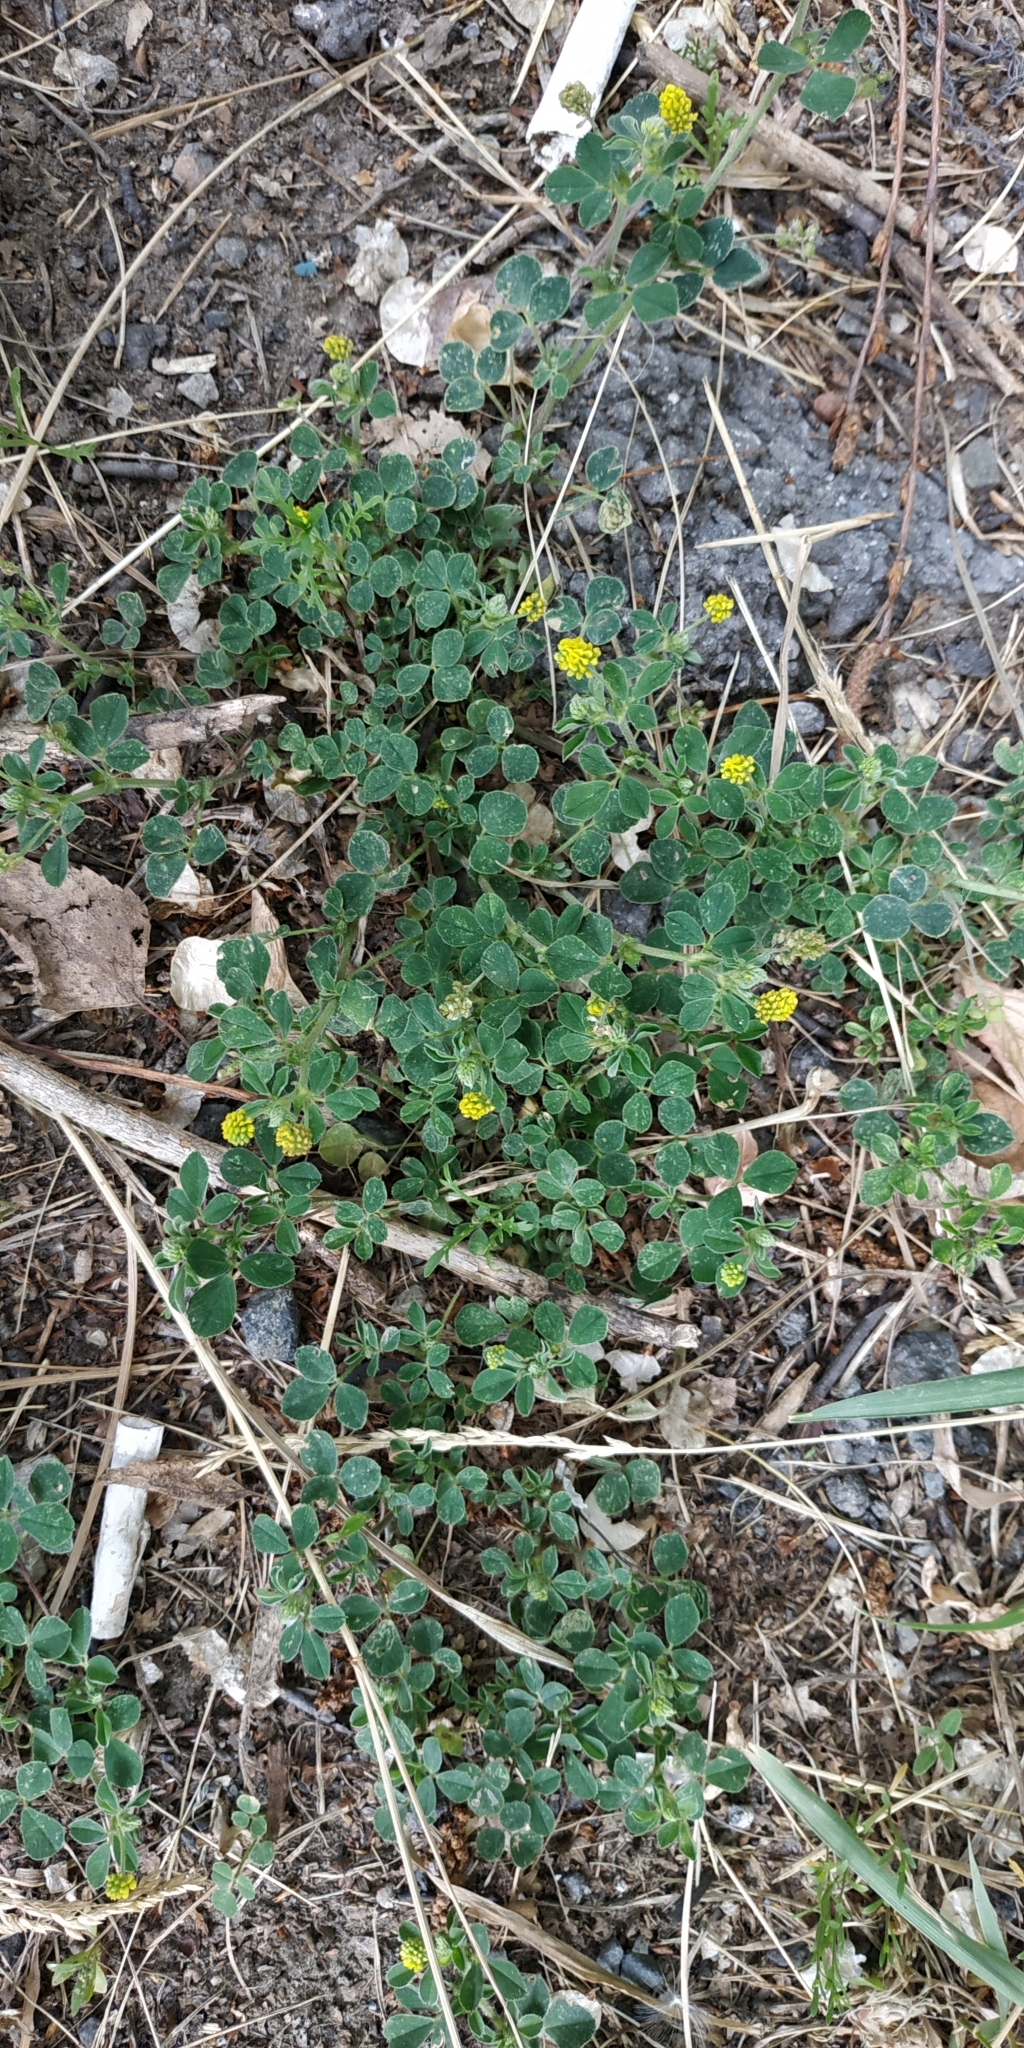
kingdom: Plantae
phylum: Tracheophyta
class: Magnoliopsida
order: Fabales
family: Fabaceae
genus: Medicago
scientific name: Medicago lupulina
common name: Black medick
